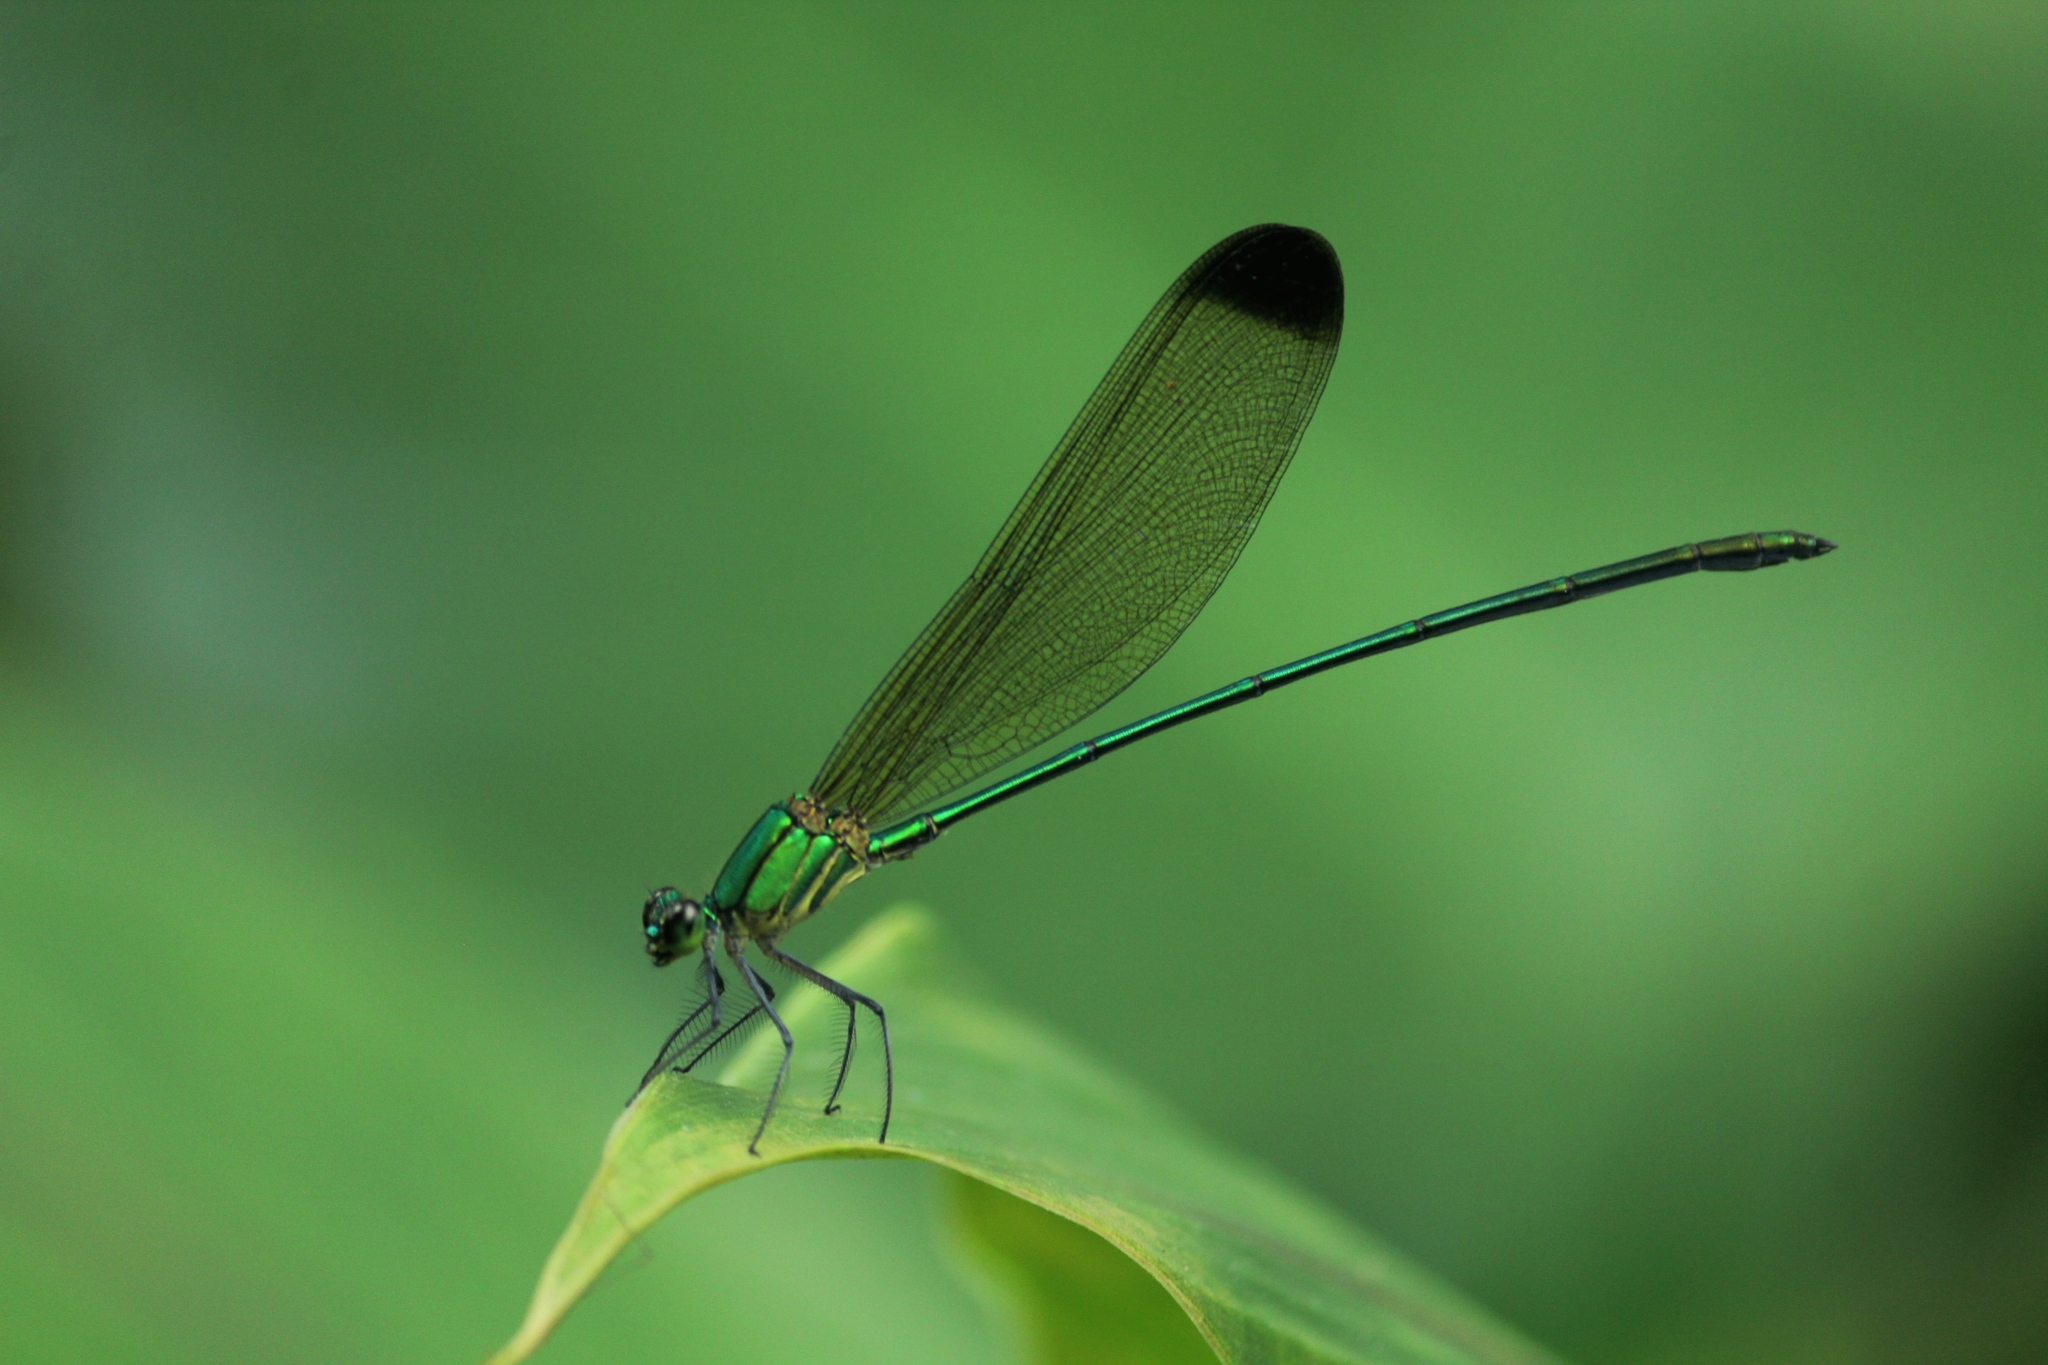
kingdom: Animalia
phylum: Arthropoda
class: Insecta
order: Odonata
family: Calopterygidae
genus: Vestalis
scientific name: Vestalis apicalis
